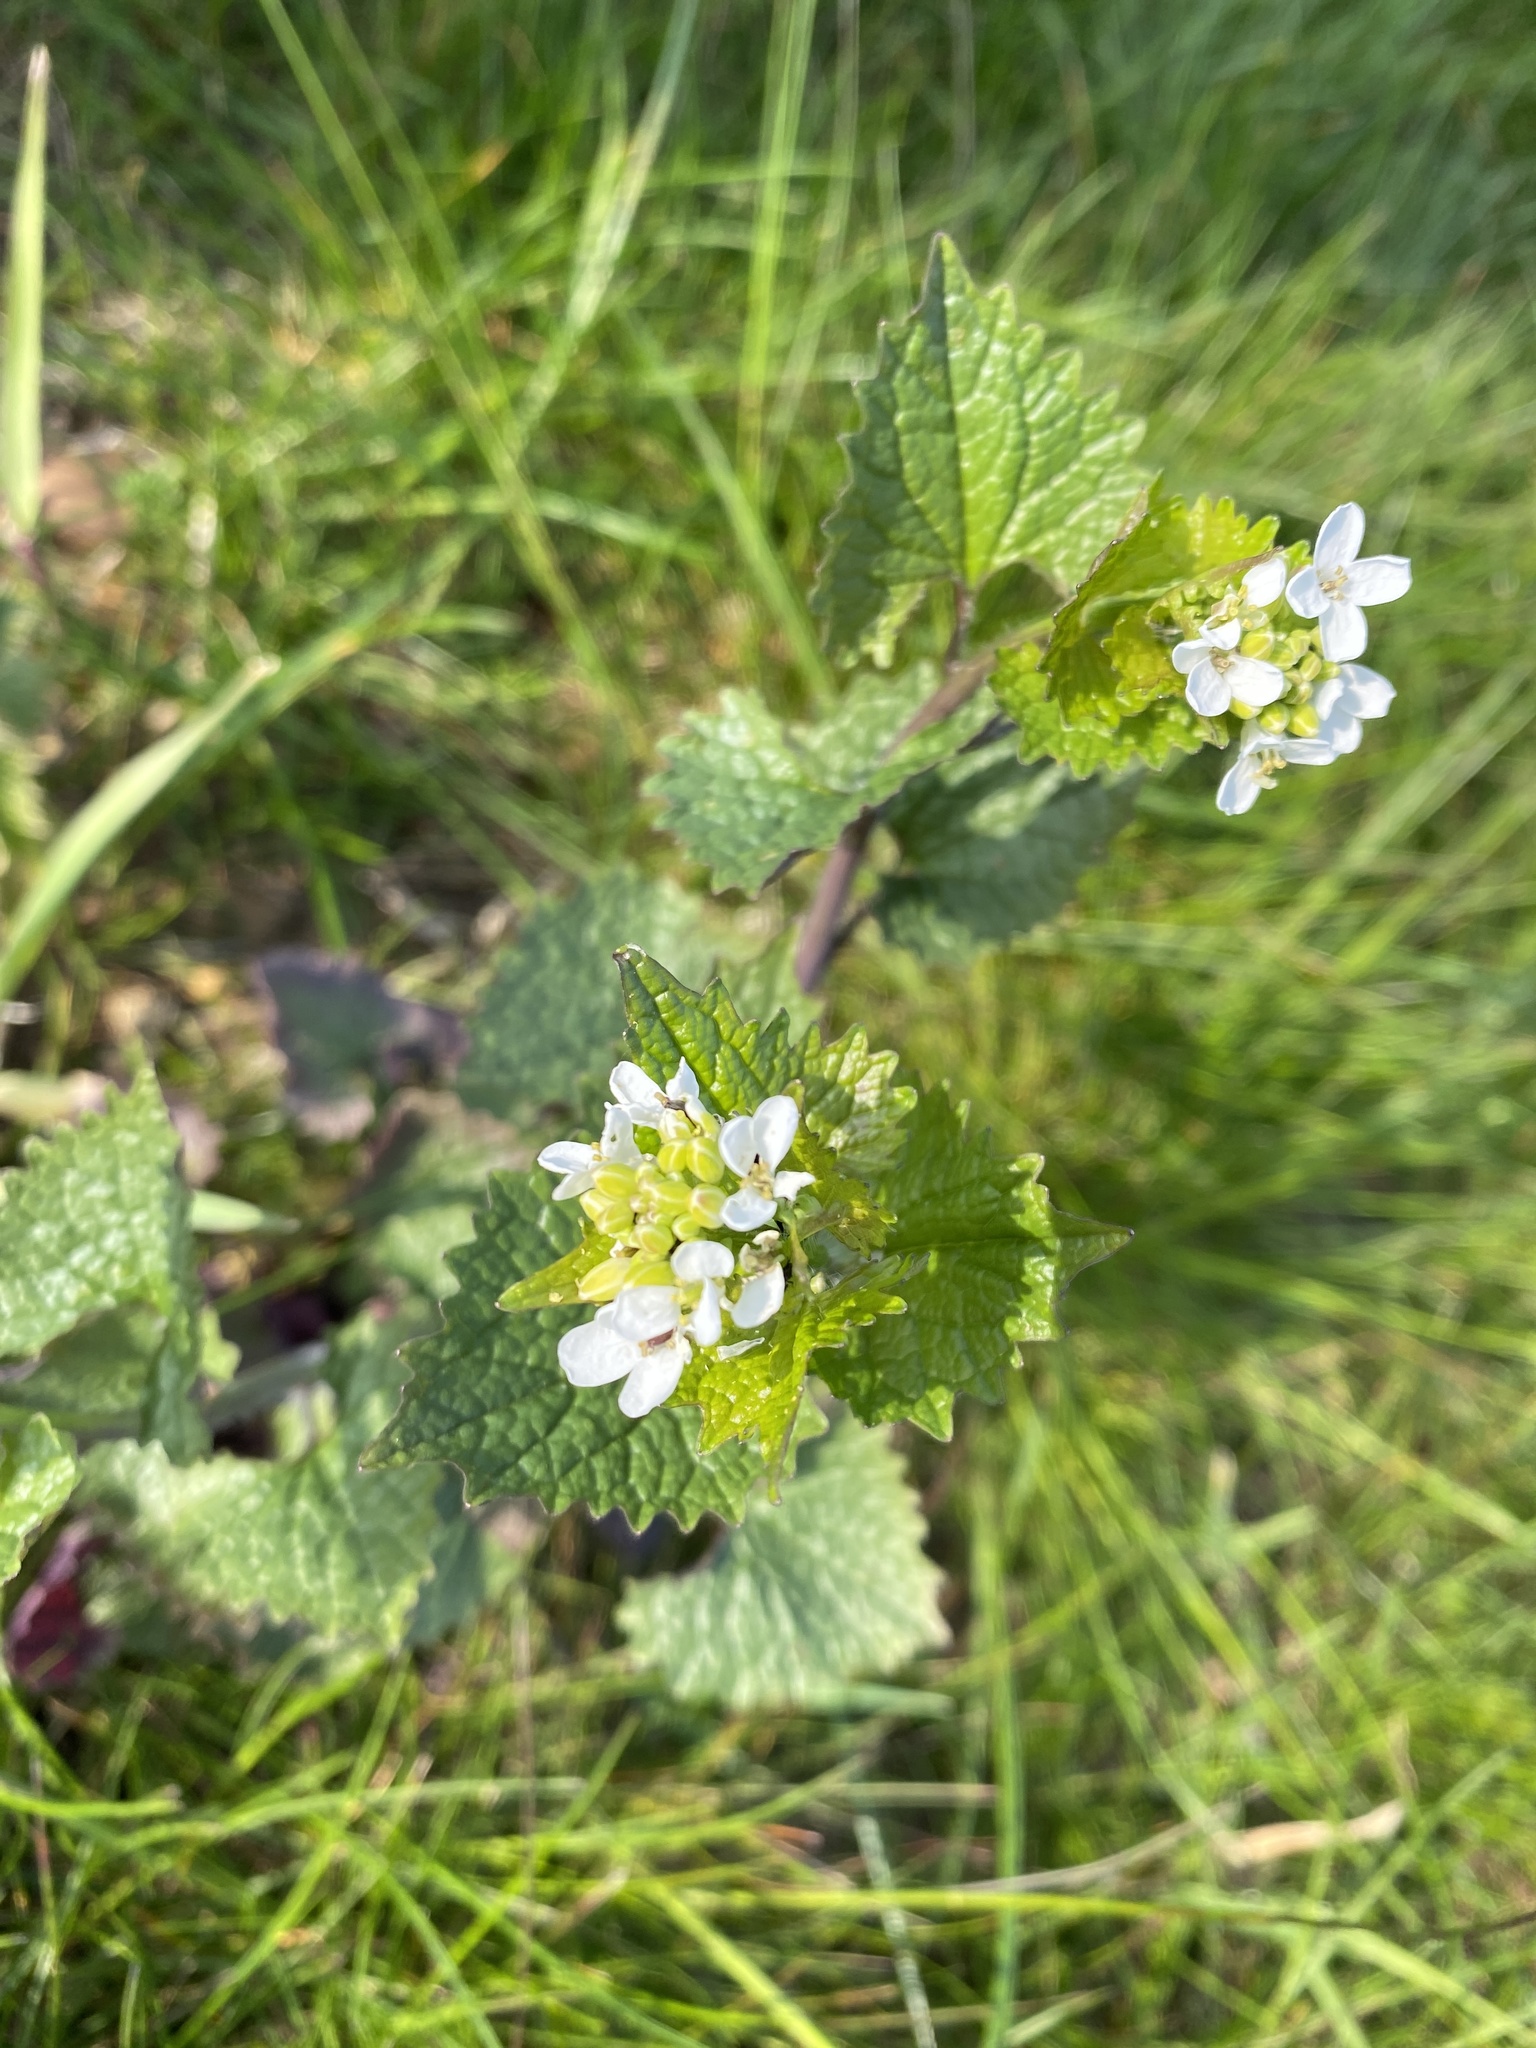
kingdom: Plantae
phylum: Tracheophyta
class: Magnoliopsida
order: Brassicales
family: Brassicaceae
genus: Alliaria
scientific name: Alliaria petiolata
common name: Garlic mustard
